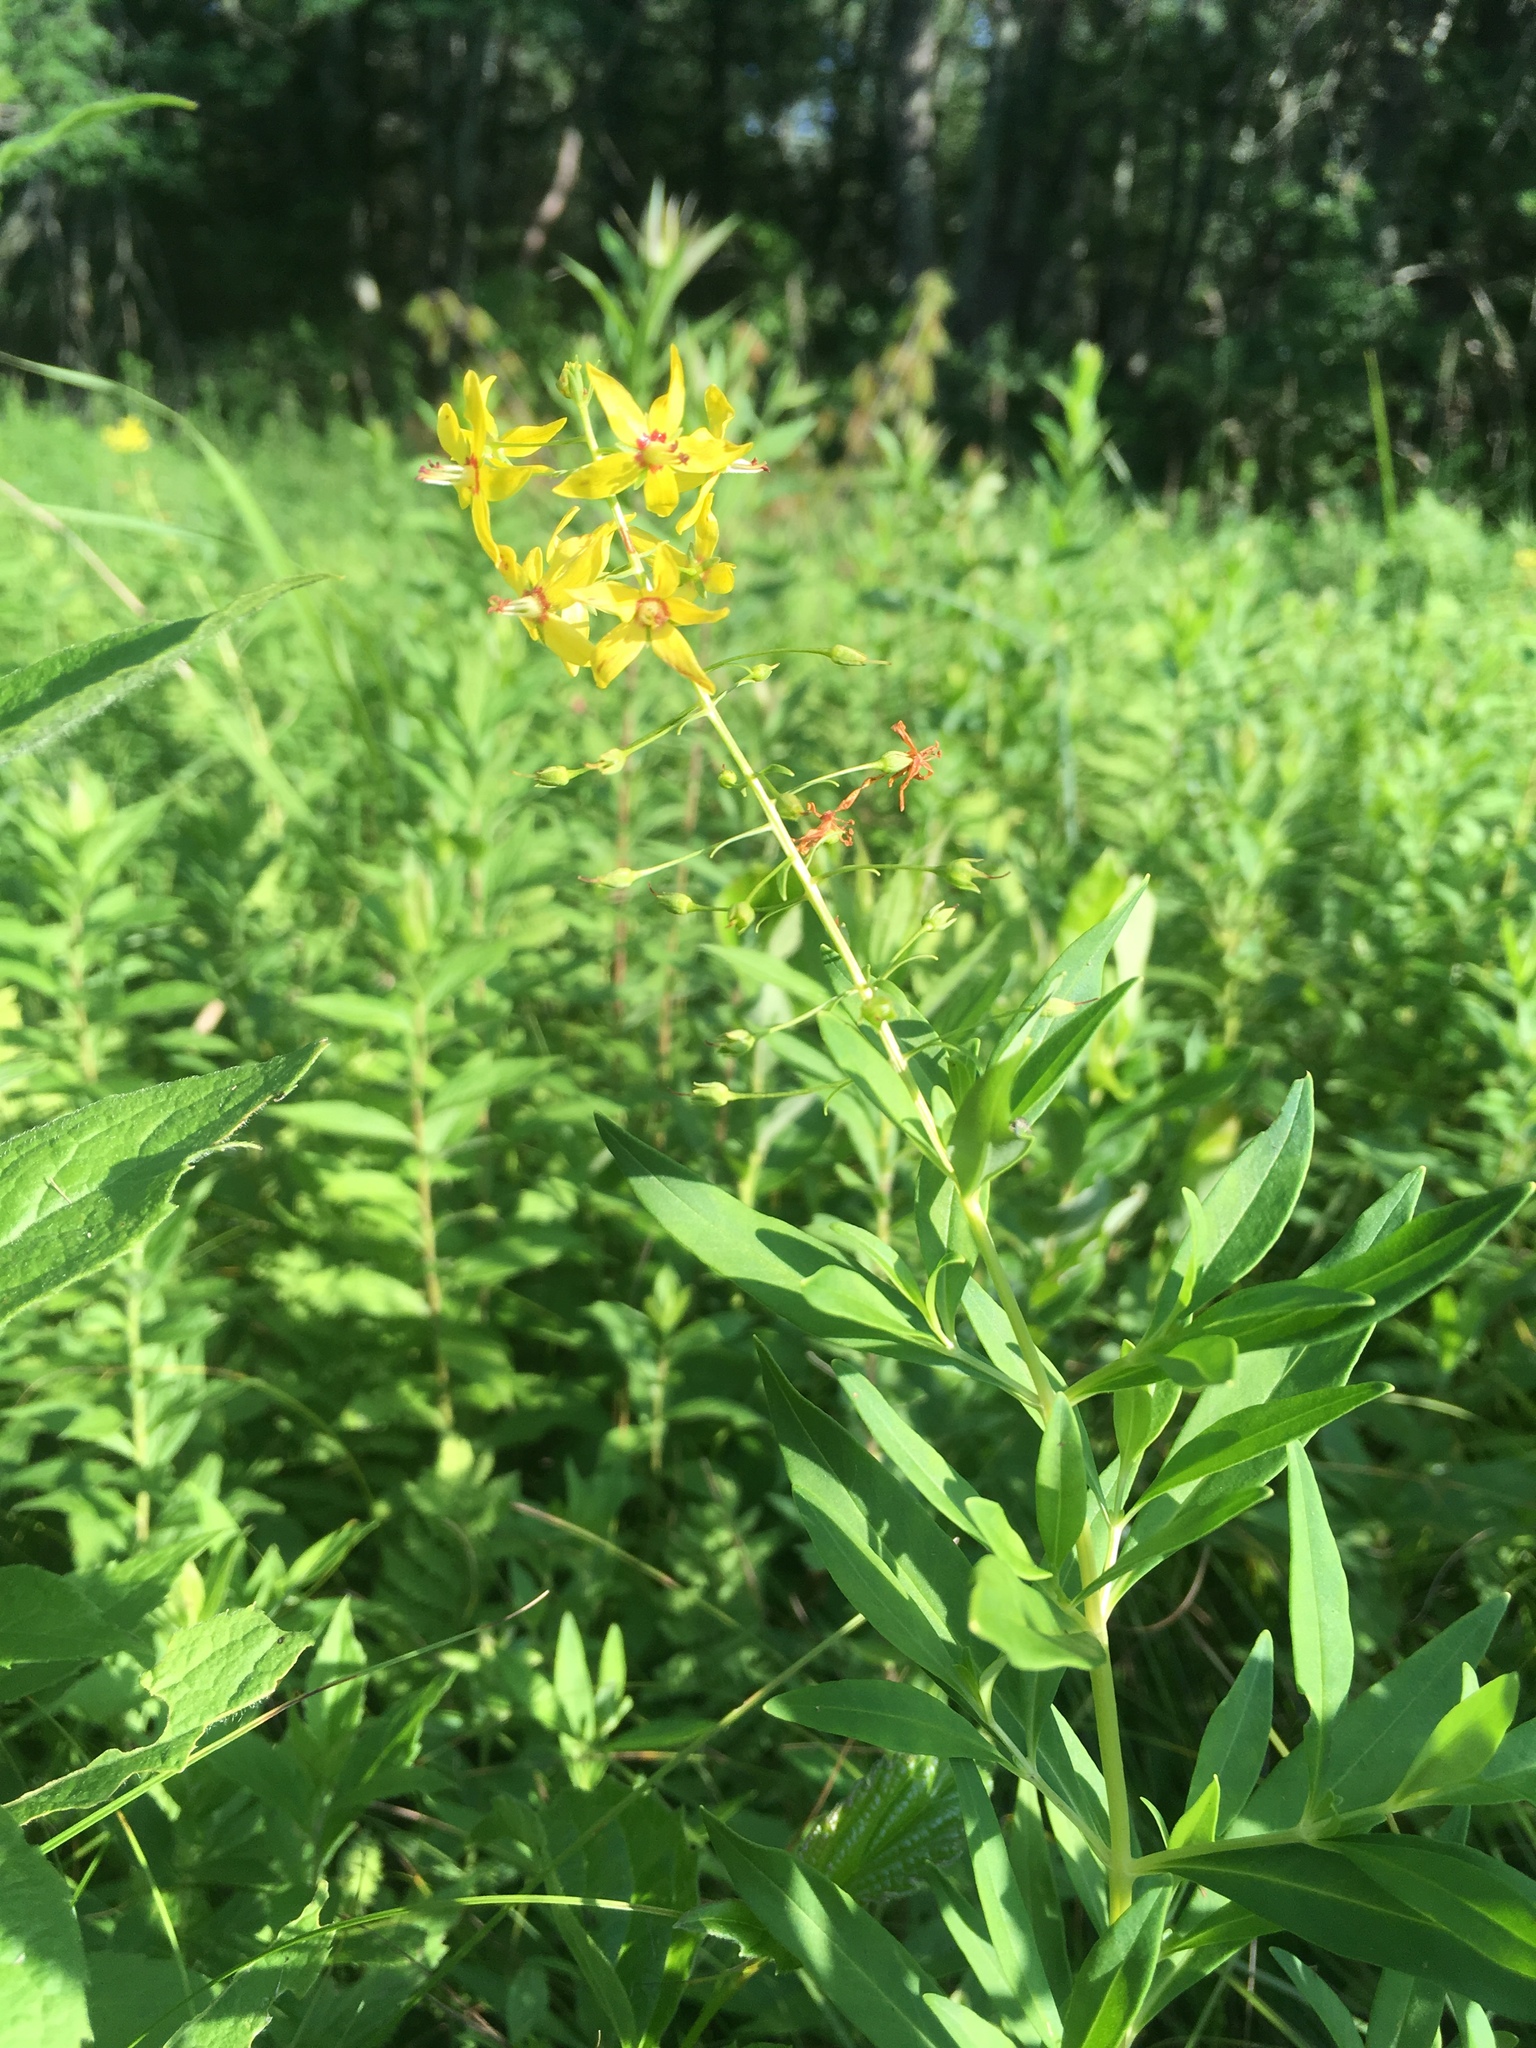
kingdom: Plantae
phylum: Tracheophyta
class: Magnoliopsida
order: Ericales
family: Primulaceae
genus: Lysimachia
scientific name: Lysimachia terrestris
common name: Lake loosestrife
